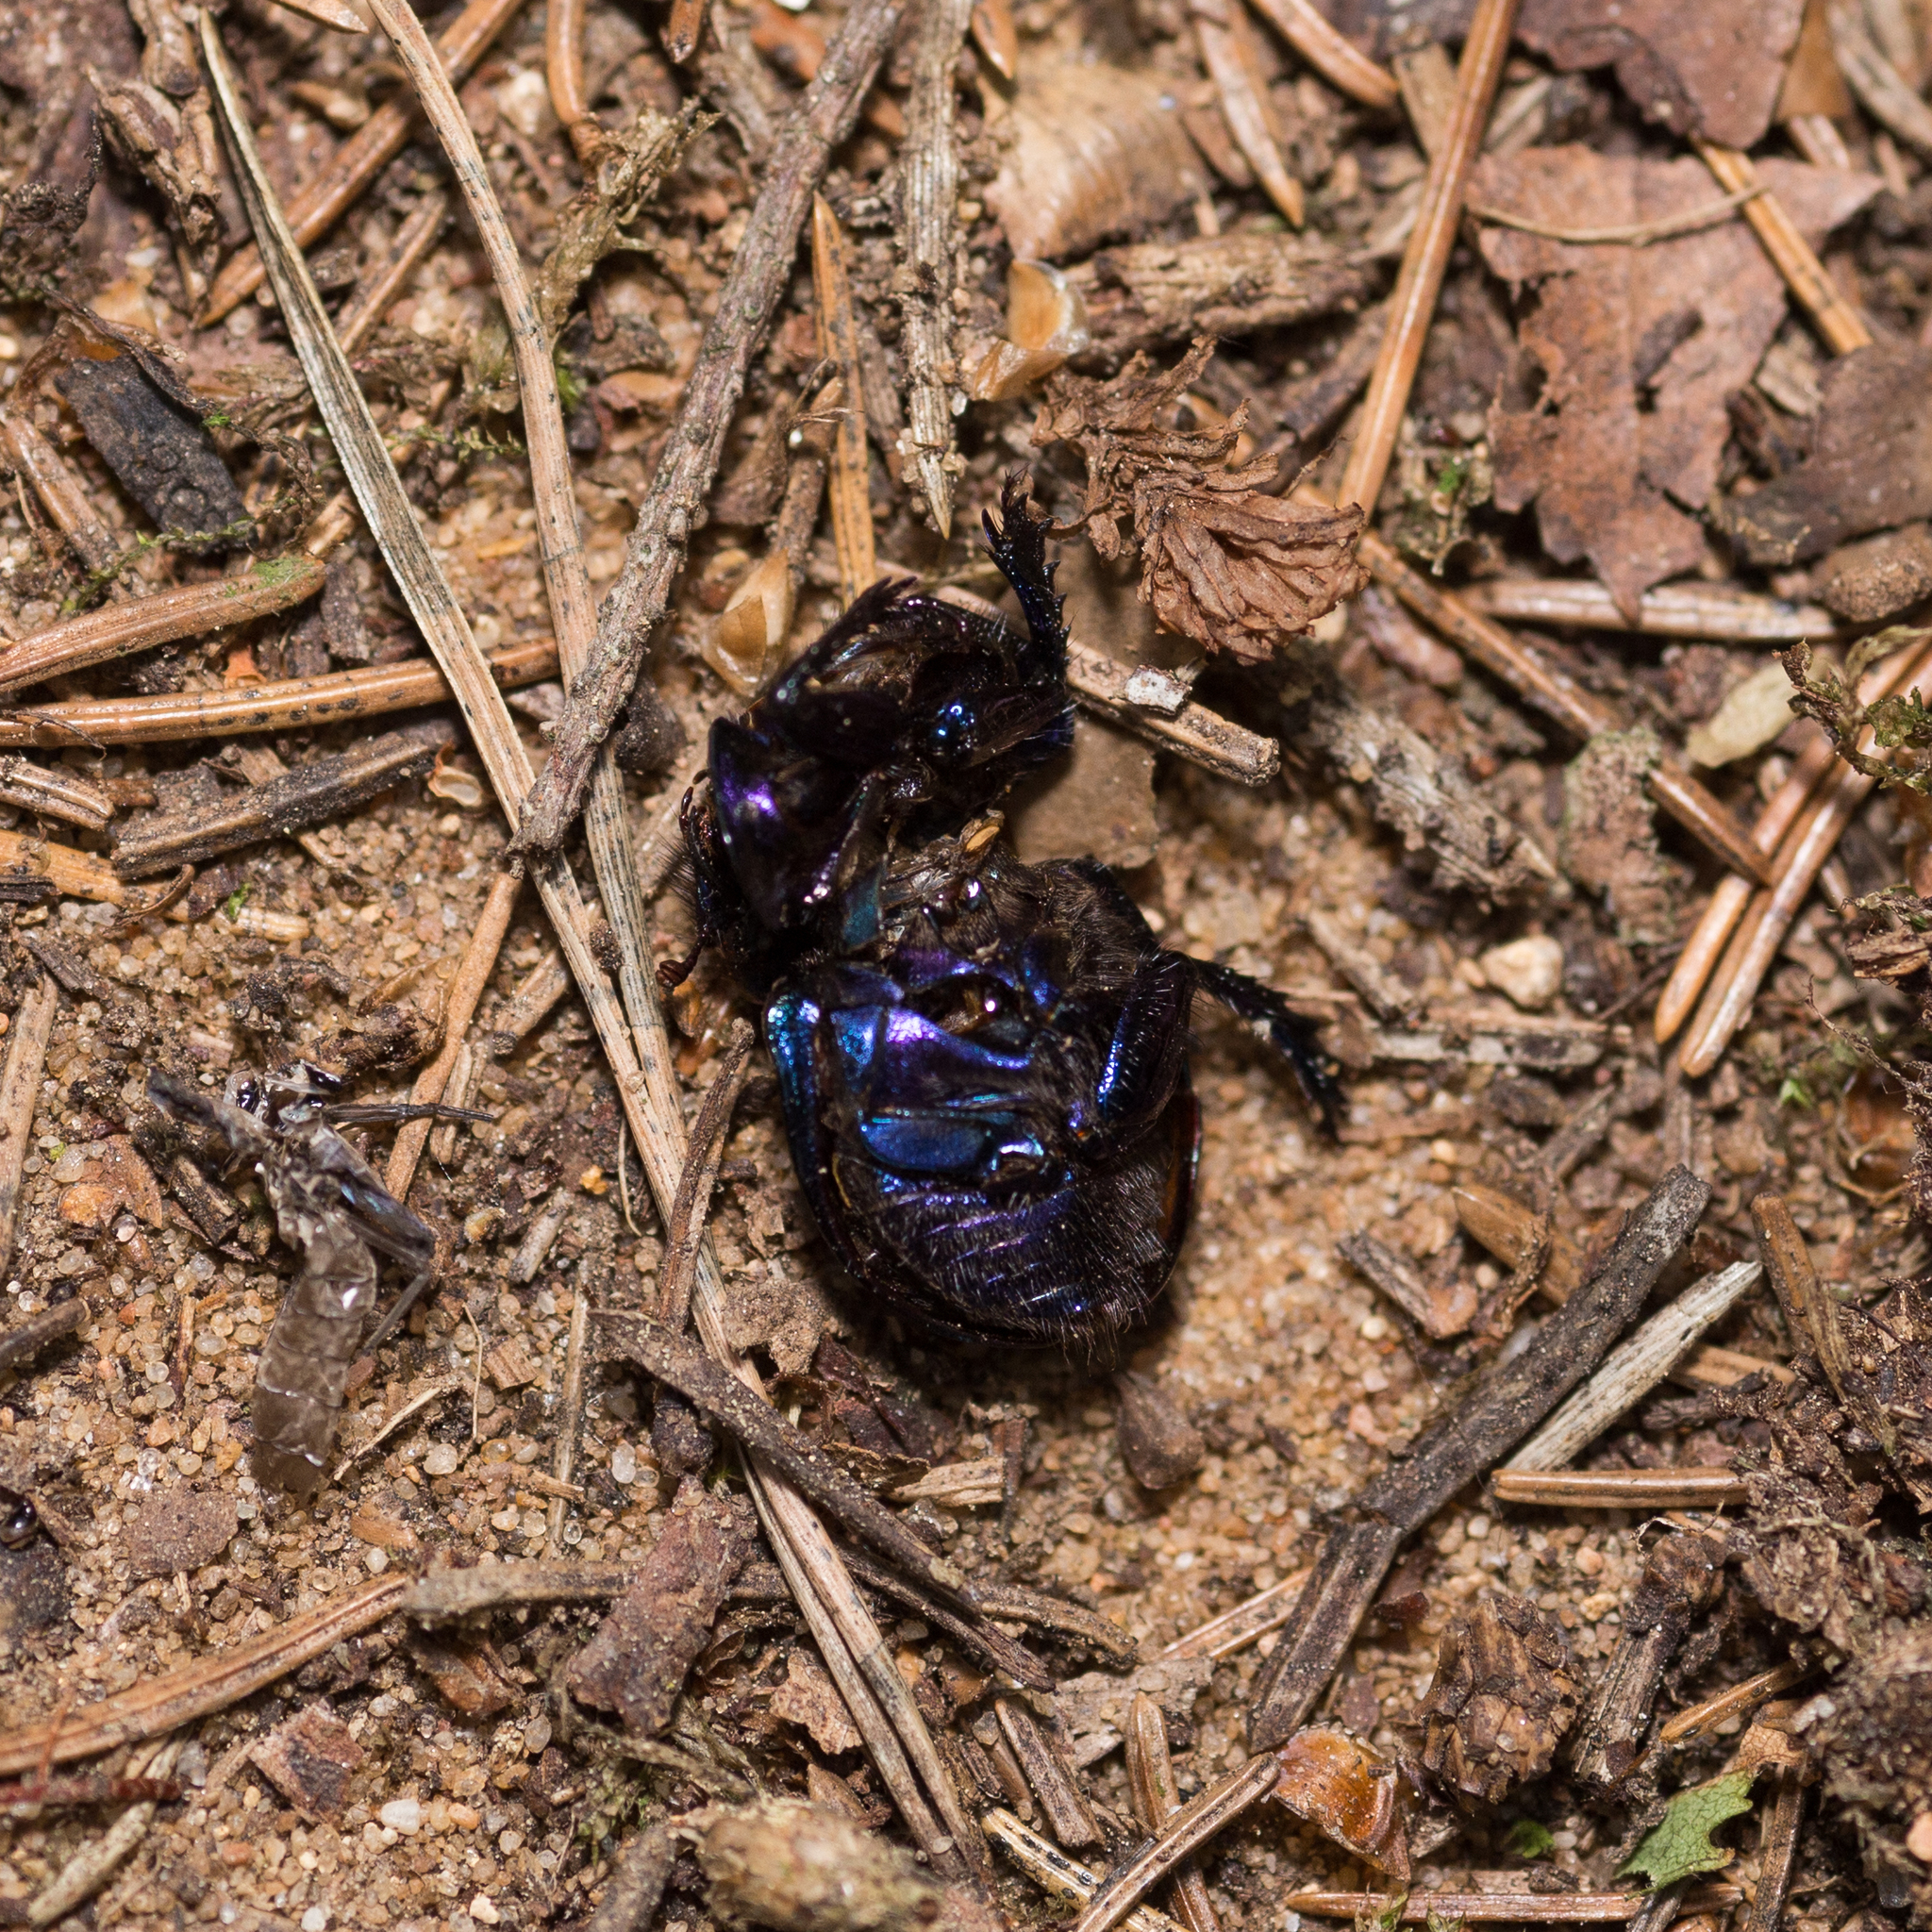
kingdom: Animalia
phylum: Arthropoda
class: Insecta
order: Coleoptera
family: Geotrupidae
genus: Anoplotrupes
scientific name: Anoplotrupes stercorosus
